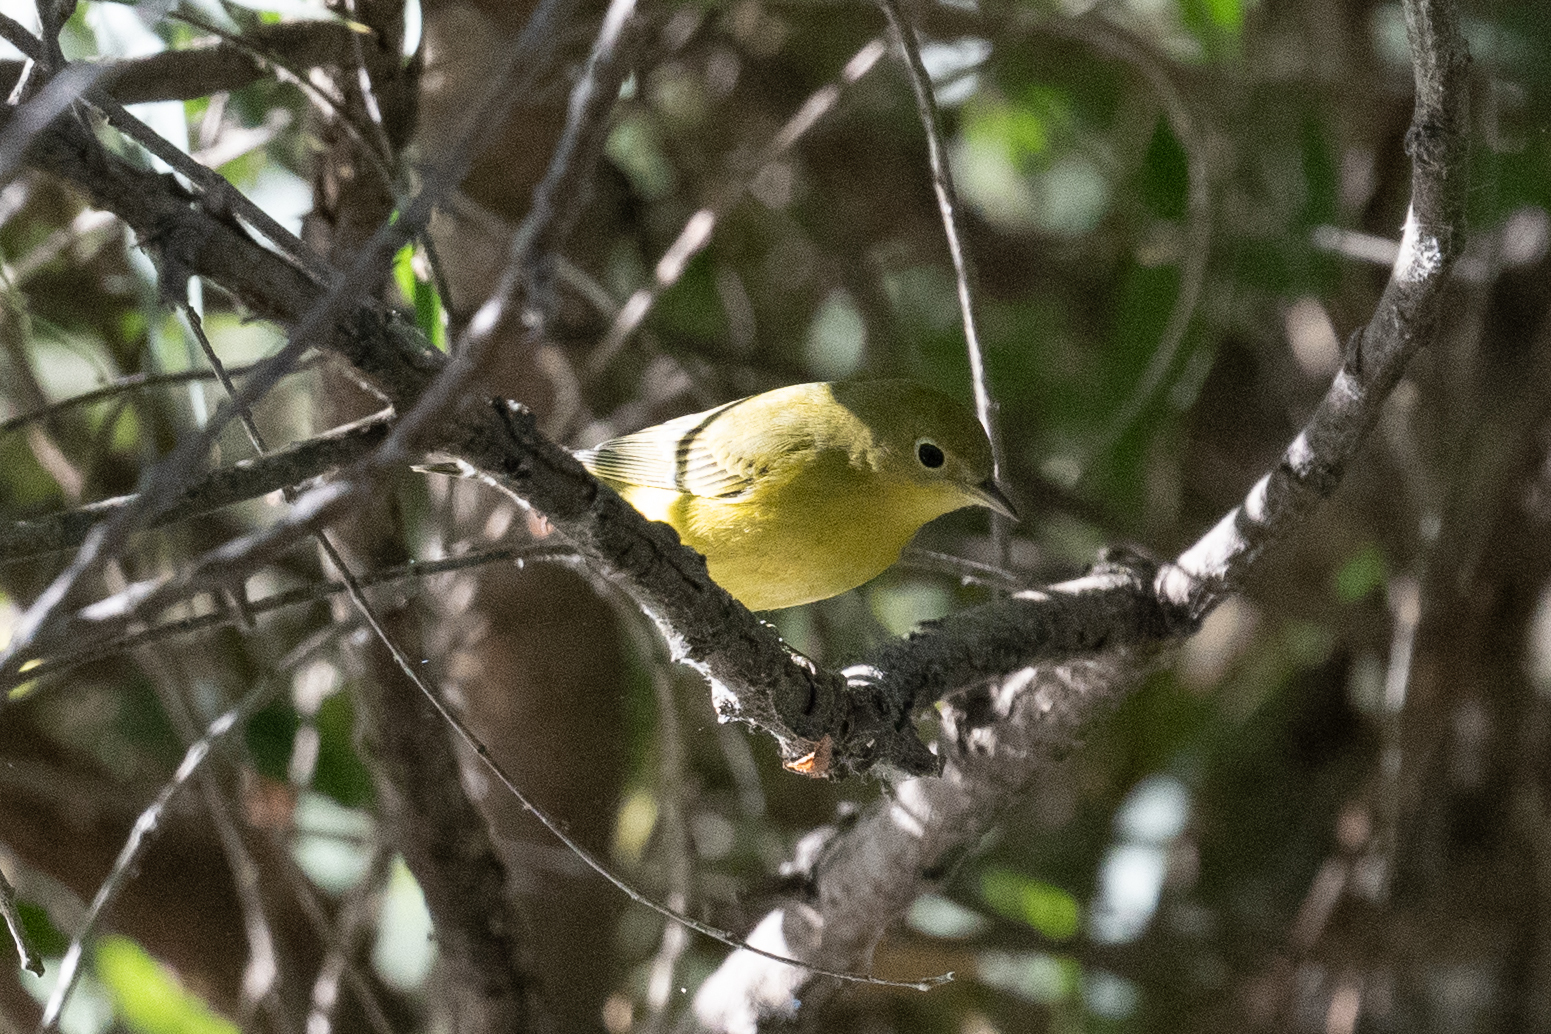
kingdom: Animalia
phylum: Chordata
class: Aves
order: Passeriformes
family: Parulidae
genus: Setophaga
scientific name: Setophaga petechia
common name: Yellow warbler
